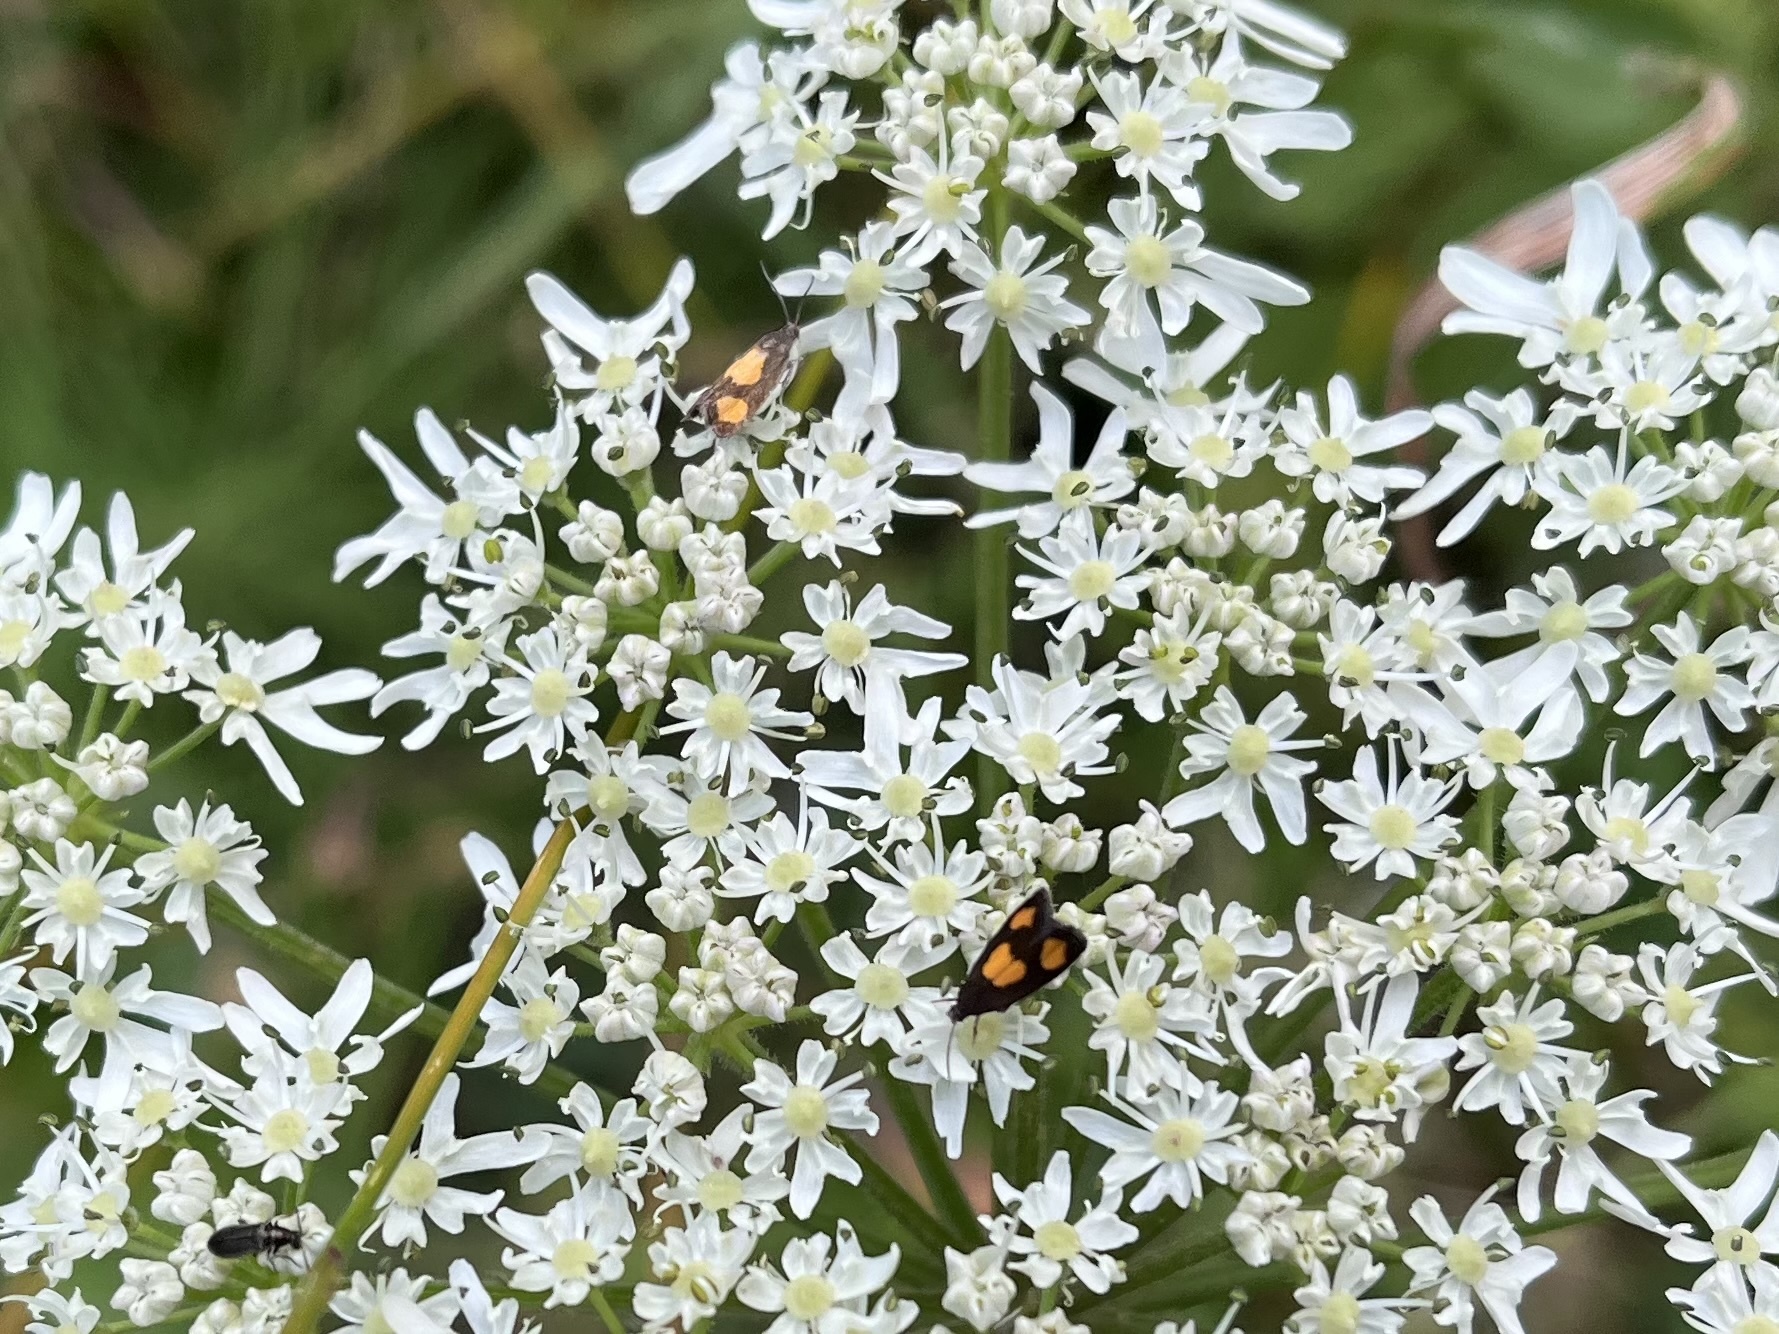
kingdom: Animalia
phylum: Arthropoda
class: Insecta
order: Lepidoptera
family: Tortricidae
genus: Pammene
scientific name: Pammene aurana
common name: Orange-spot piercer
